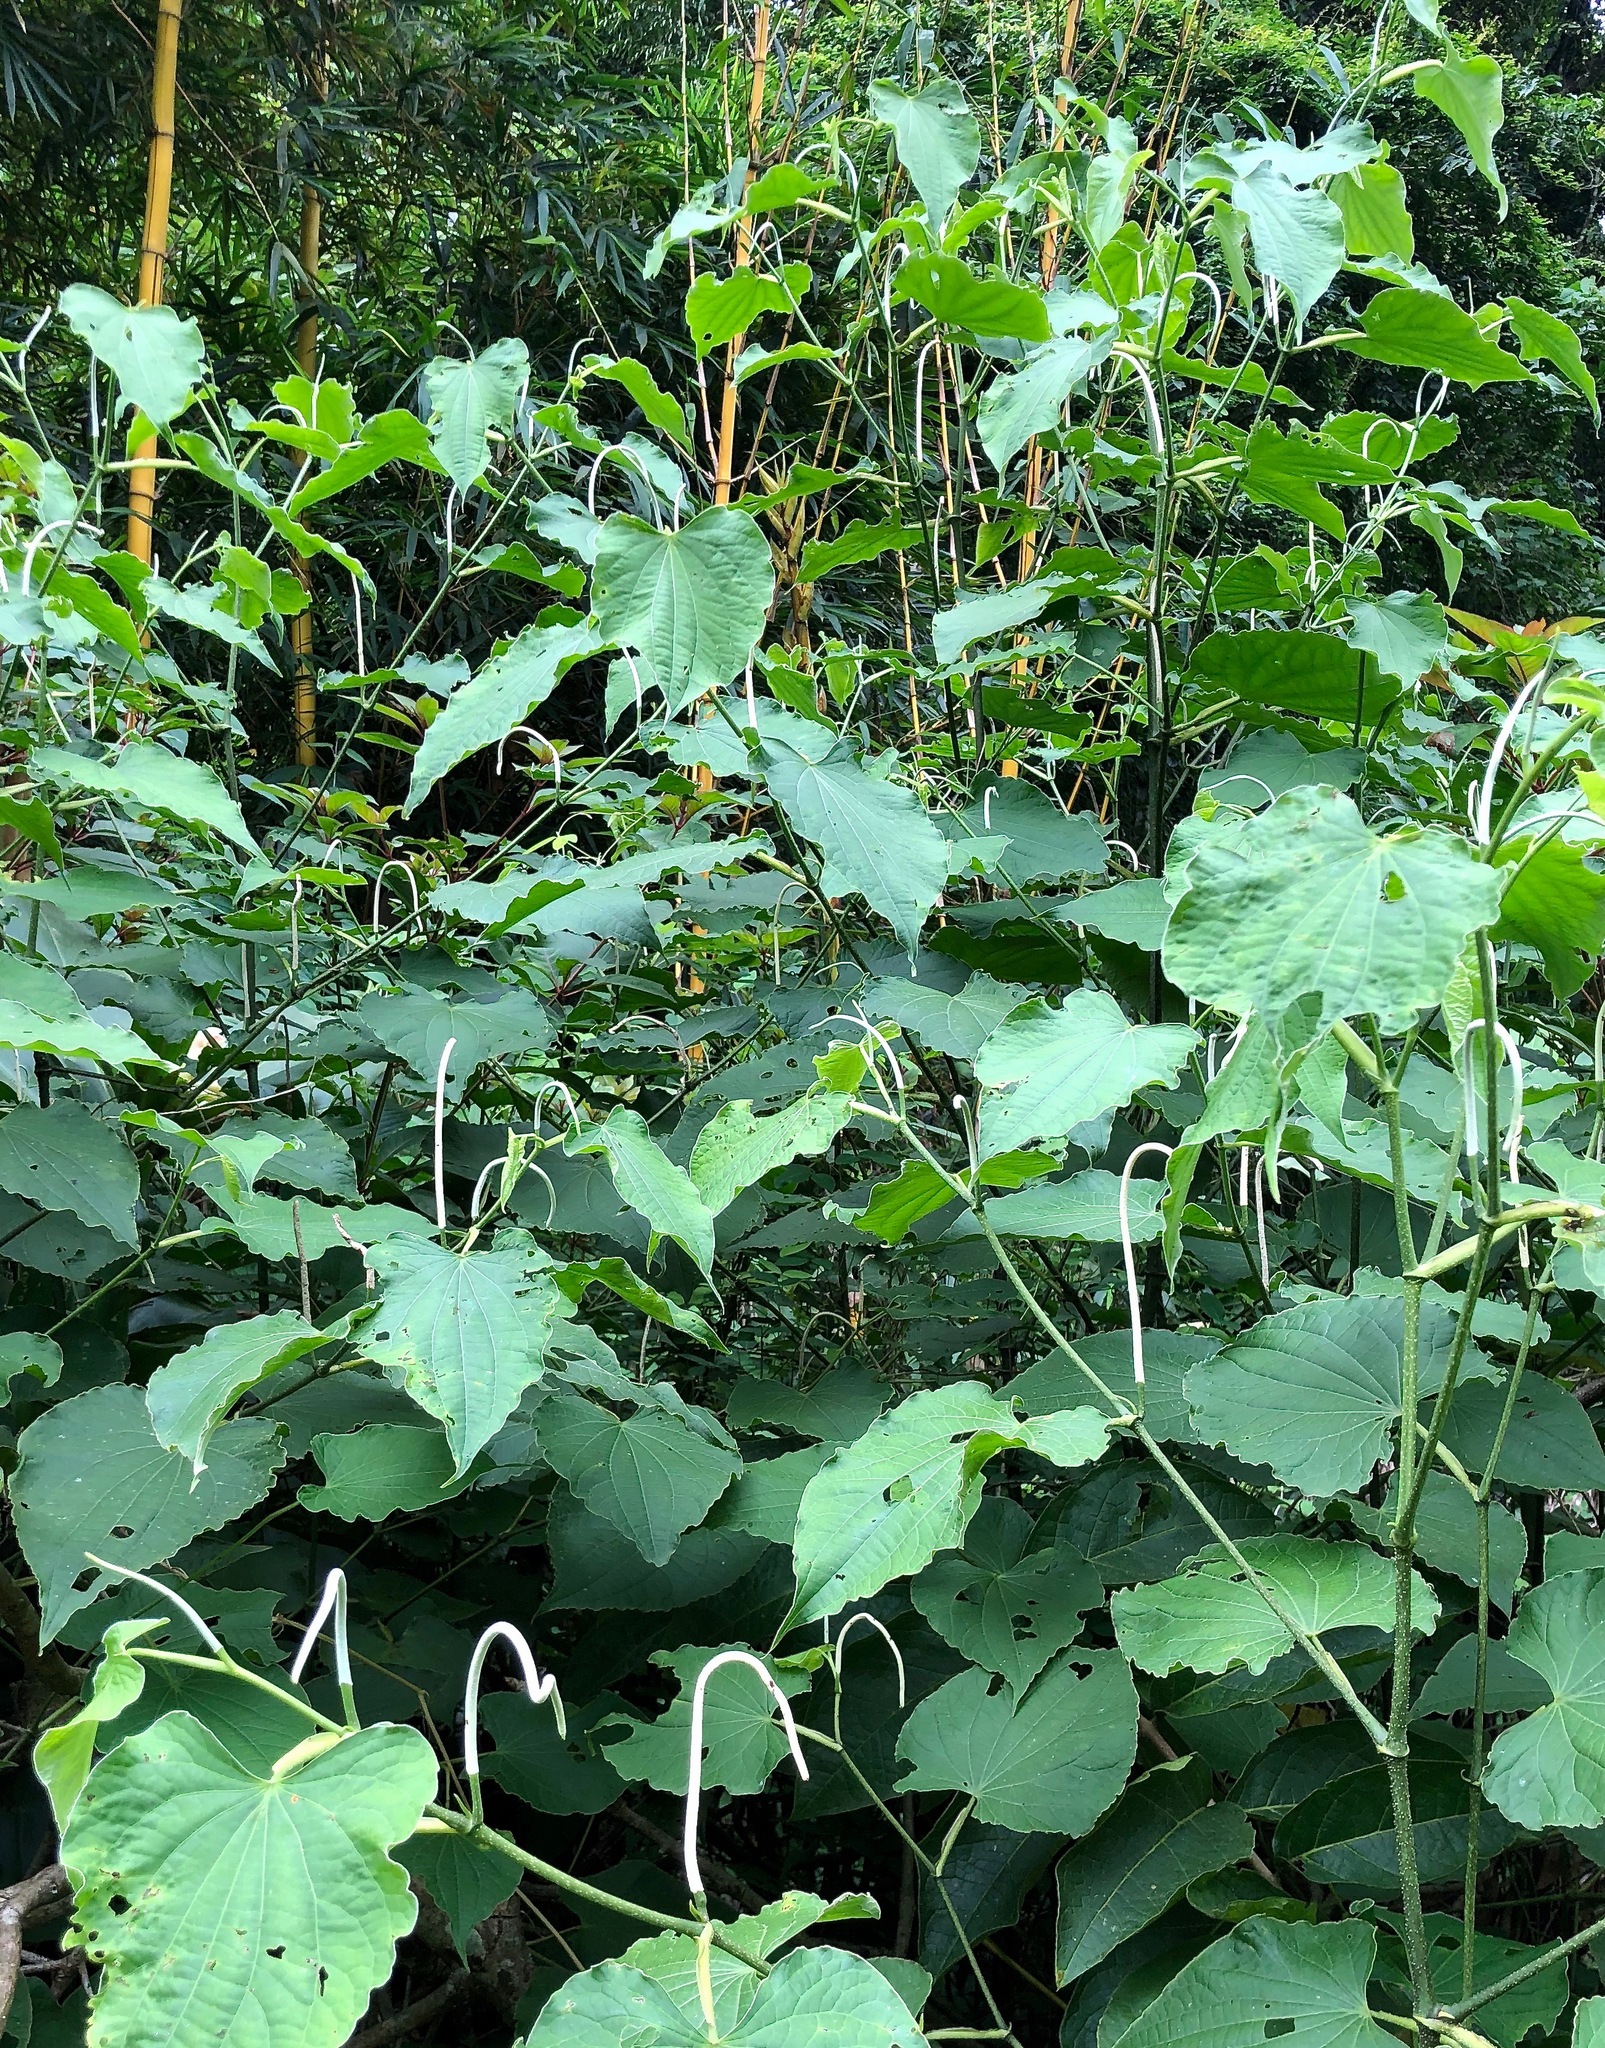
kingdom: Plantae
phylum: Tracheophyta
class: Magnoliopsida
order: Piperales
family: Piperaceae
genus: Piper
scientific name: Piper marginatum
